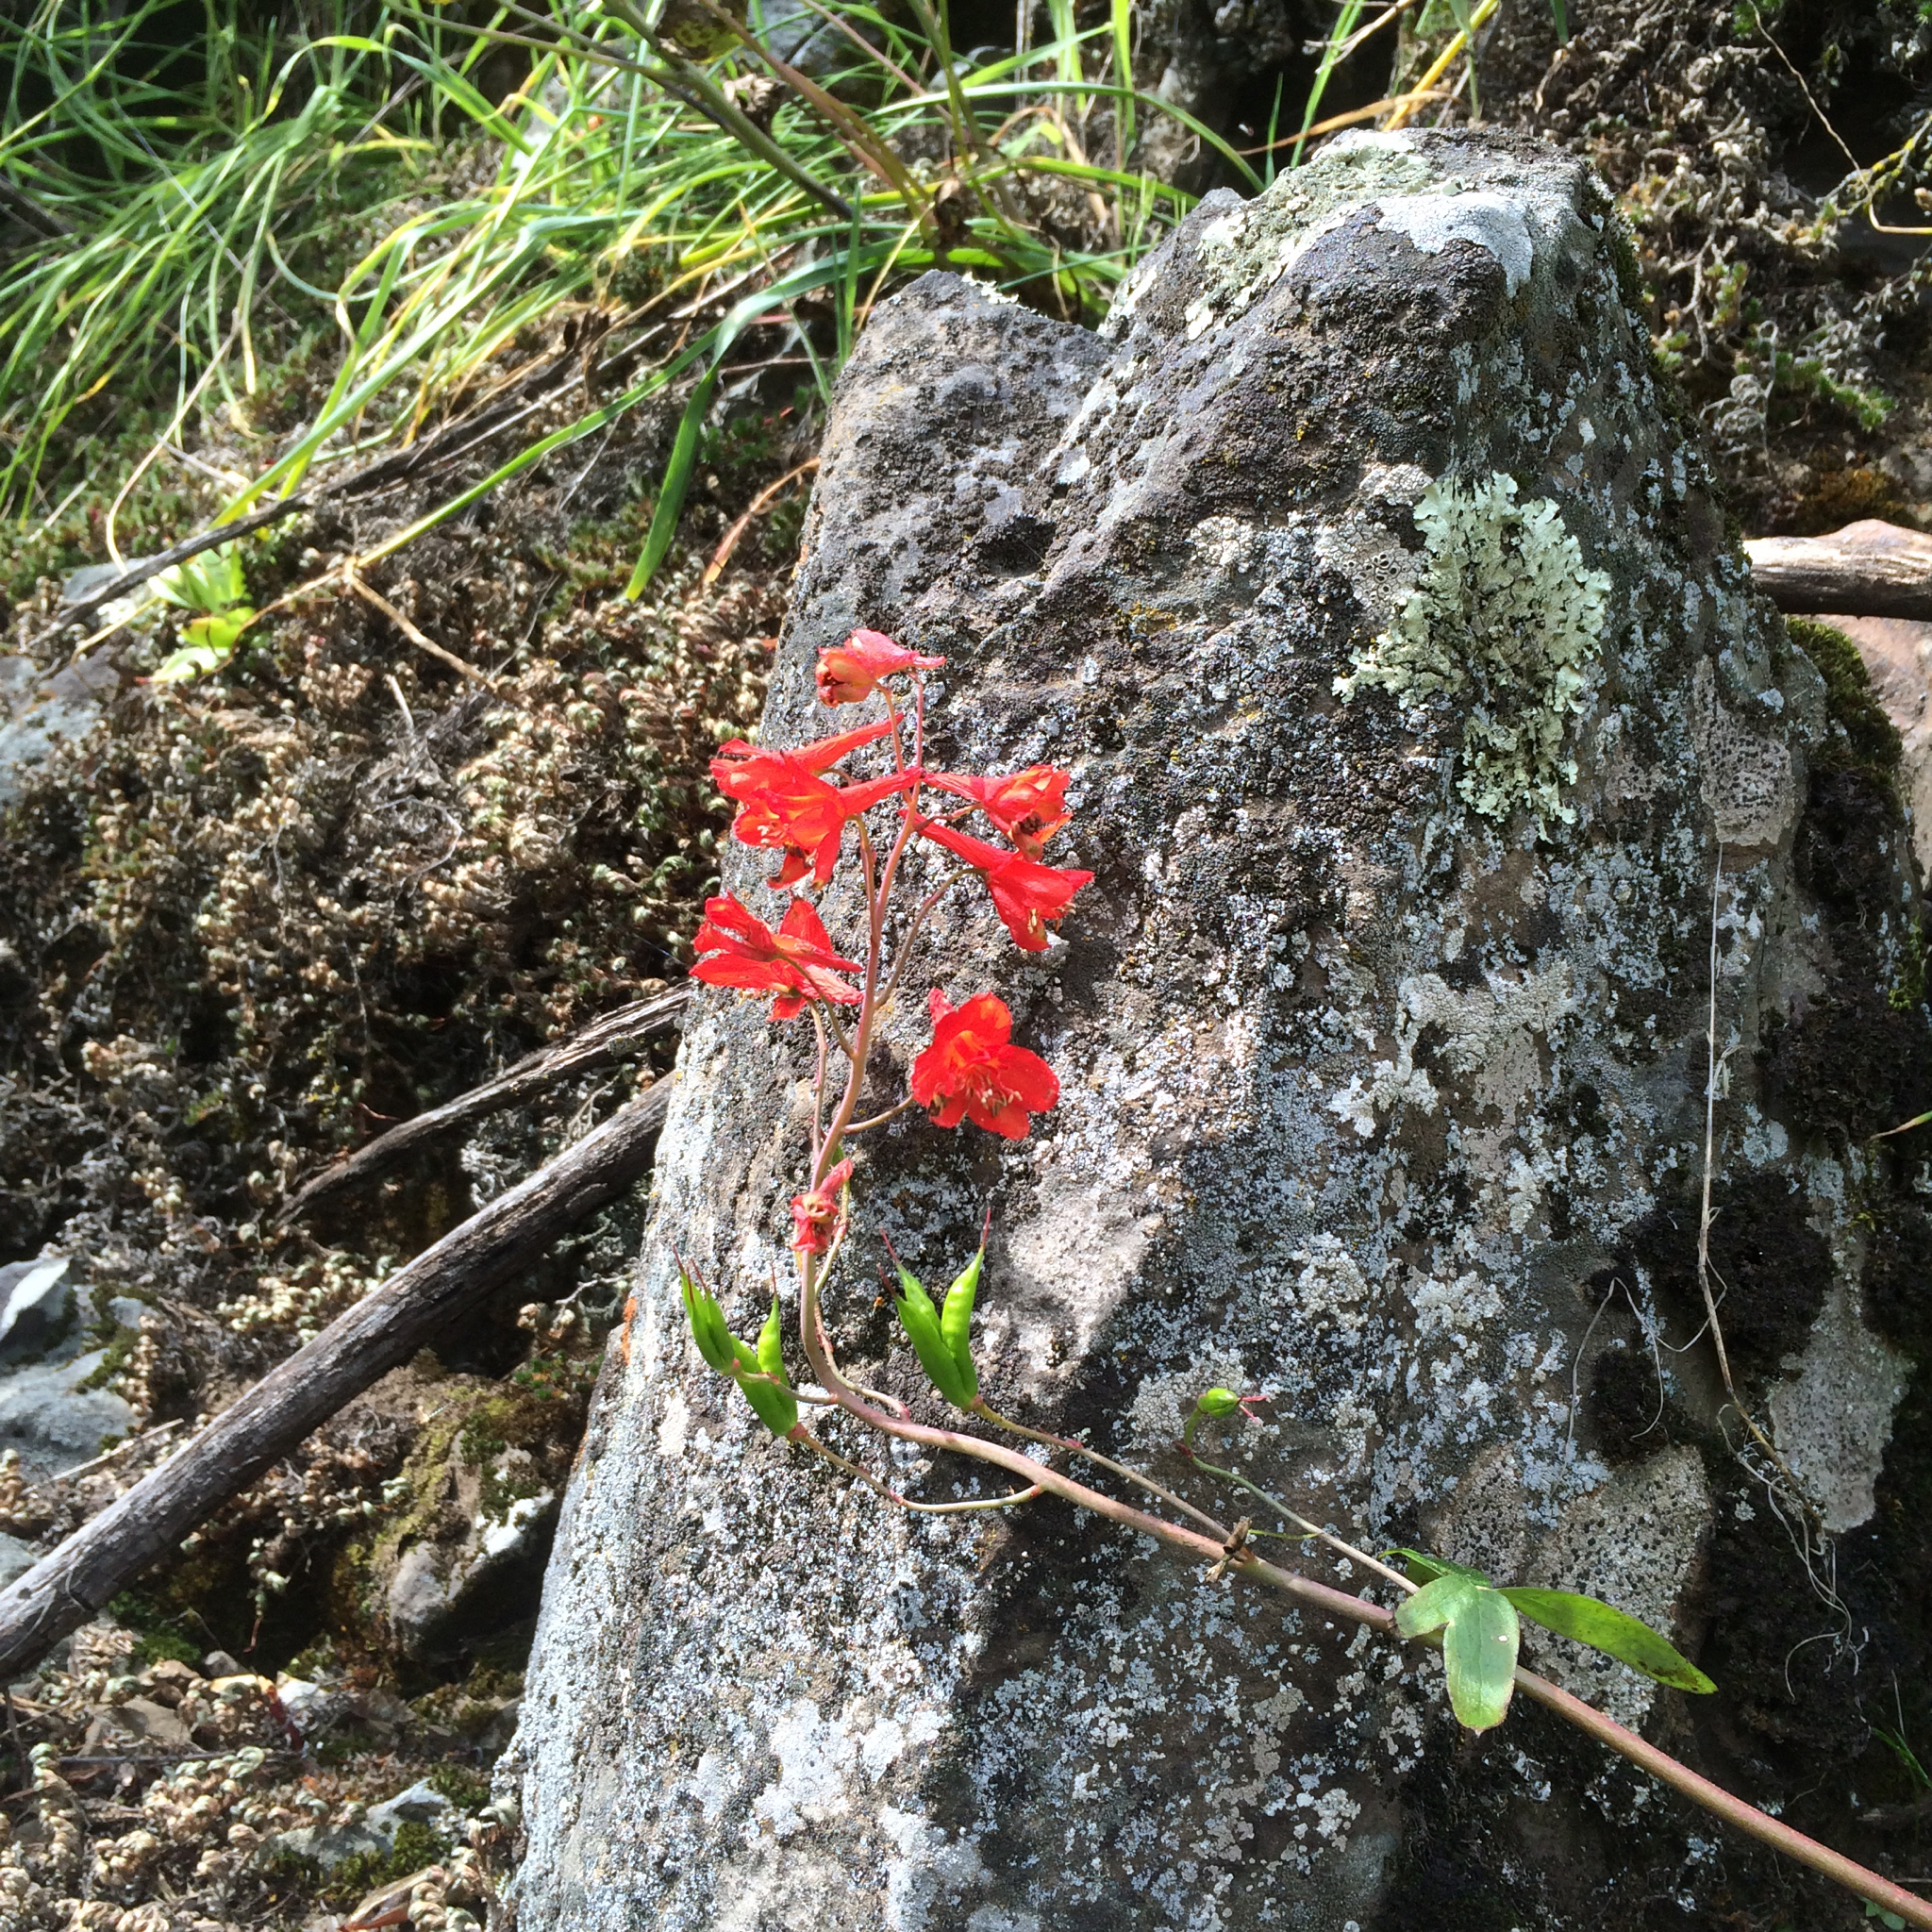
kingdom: Plantae
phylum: Tracheophyta
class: Magnoliopsida
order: Ranunculales
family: Ranunculaceae
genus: Delphinium
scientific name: Delphinium nudicaule
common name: Red larkspur
